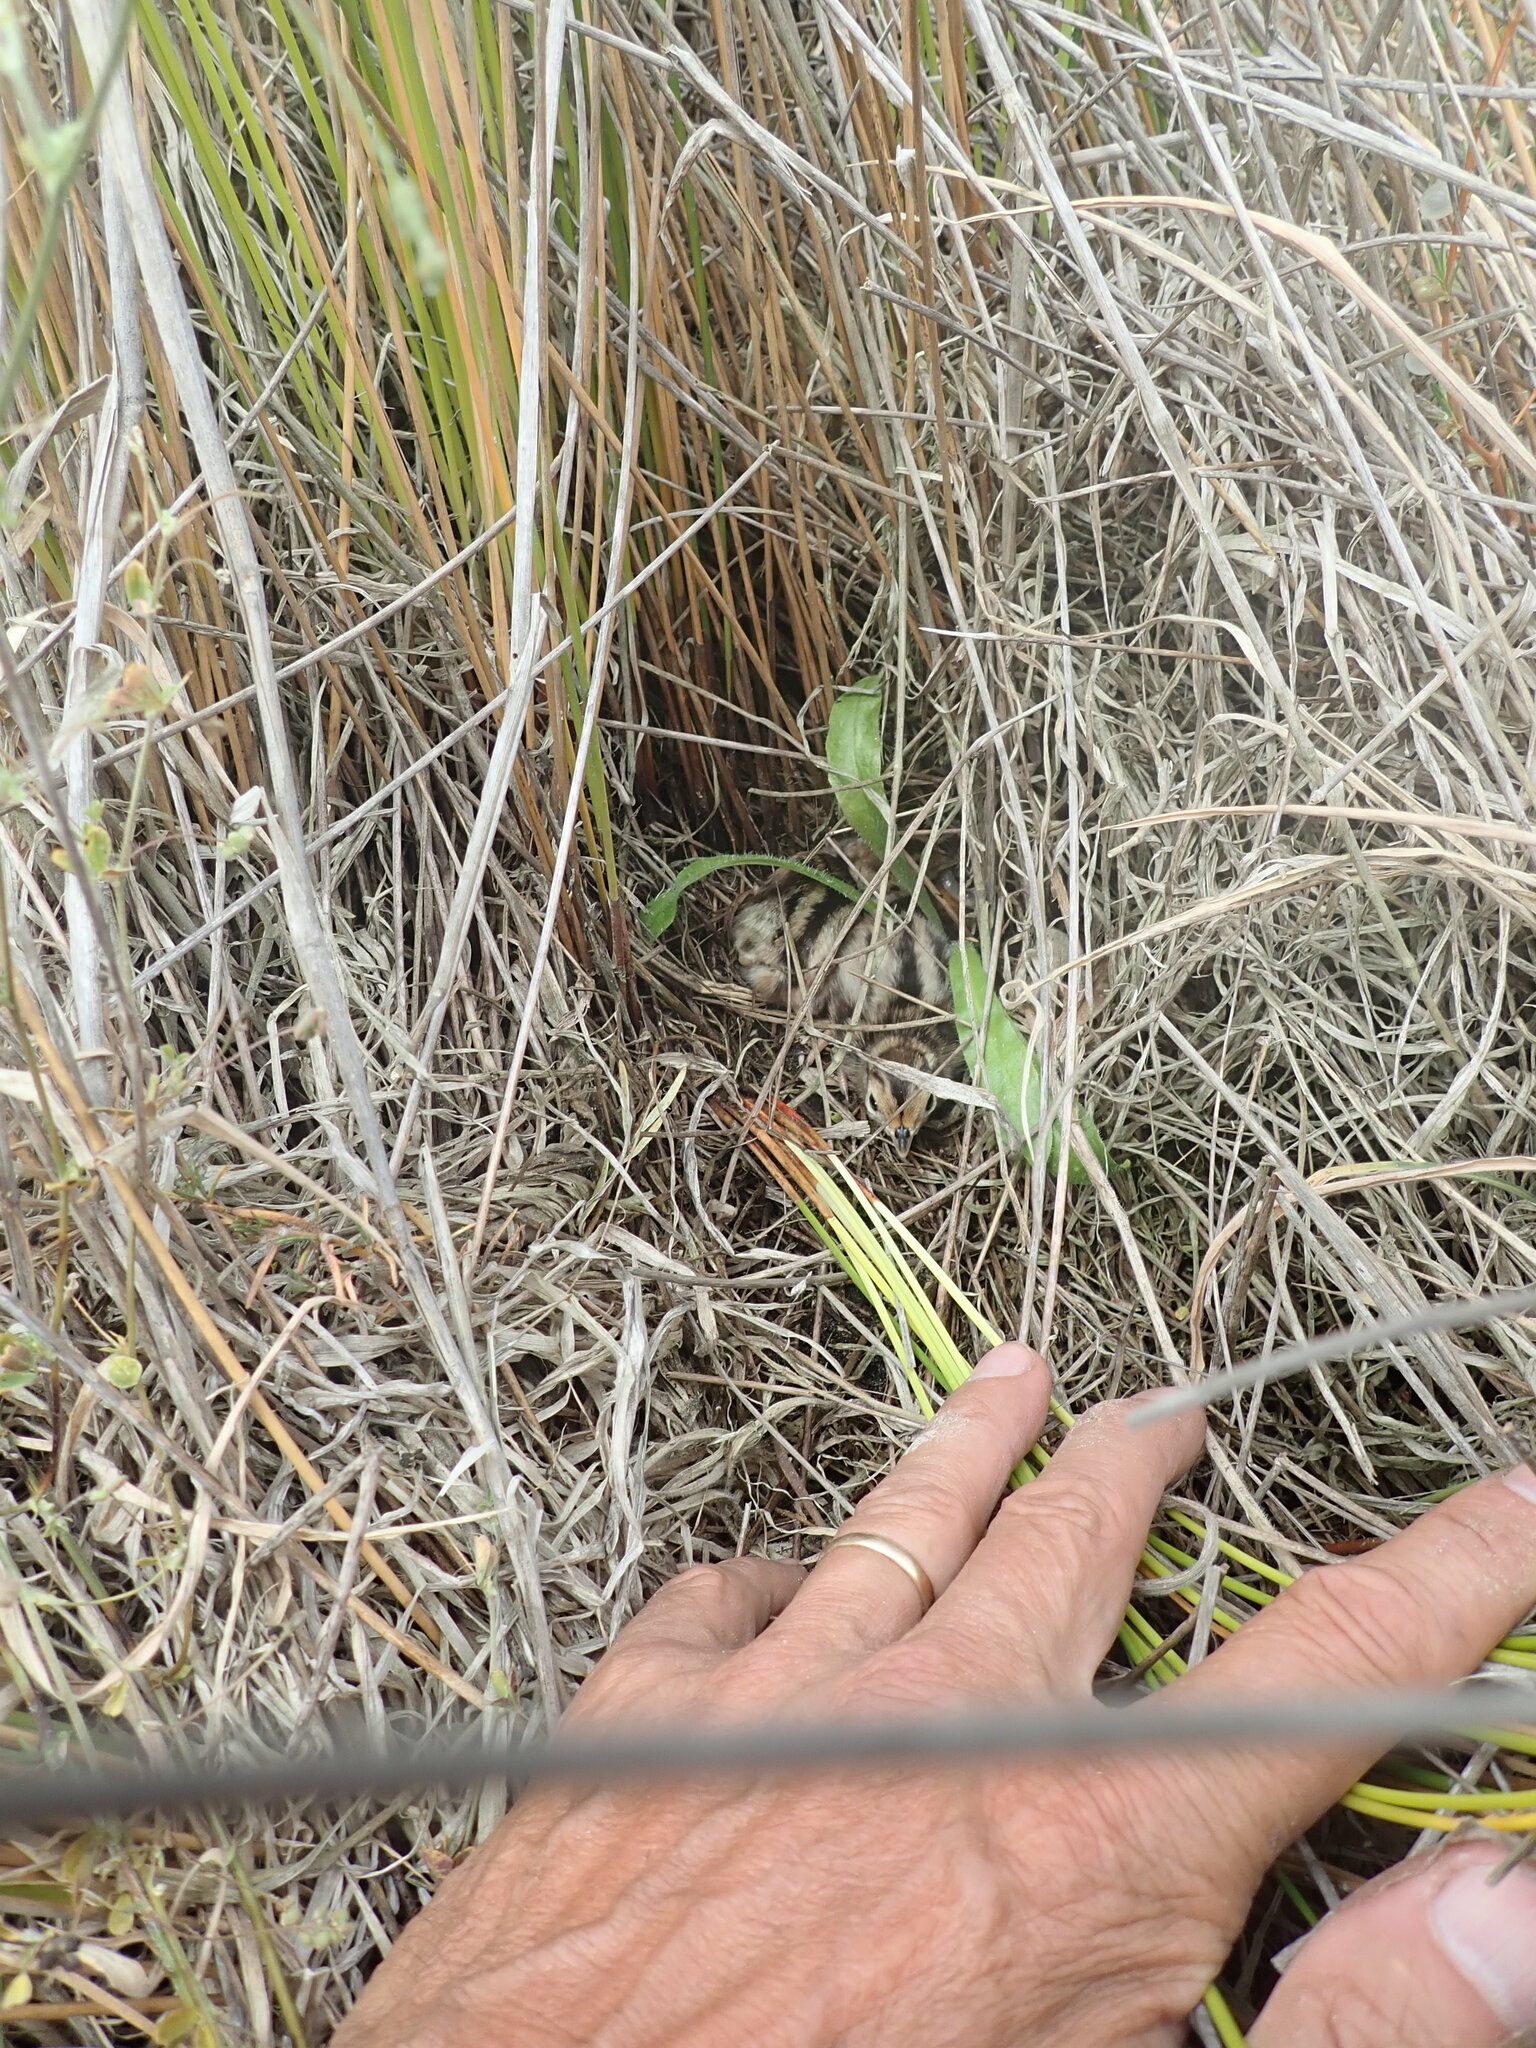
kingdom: Animalia
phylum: Chordata
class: Aves
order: Galliformes
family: Phasianidae
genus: Phasianus
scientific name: Phasianus colchicus
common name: Common pheasant
